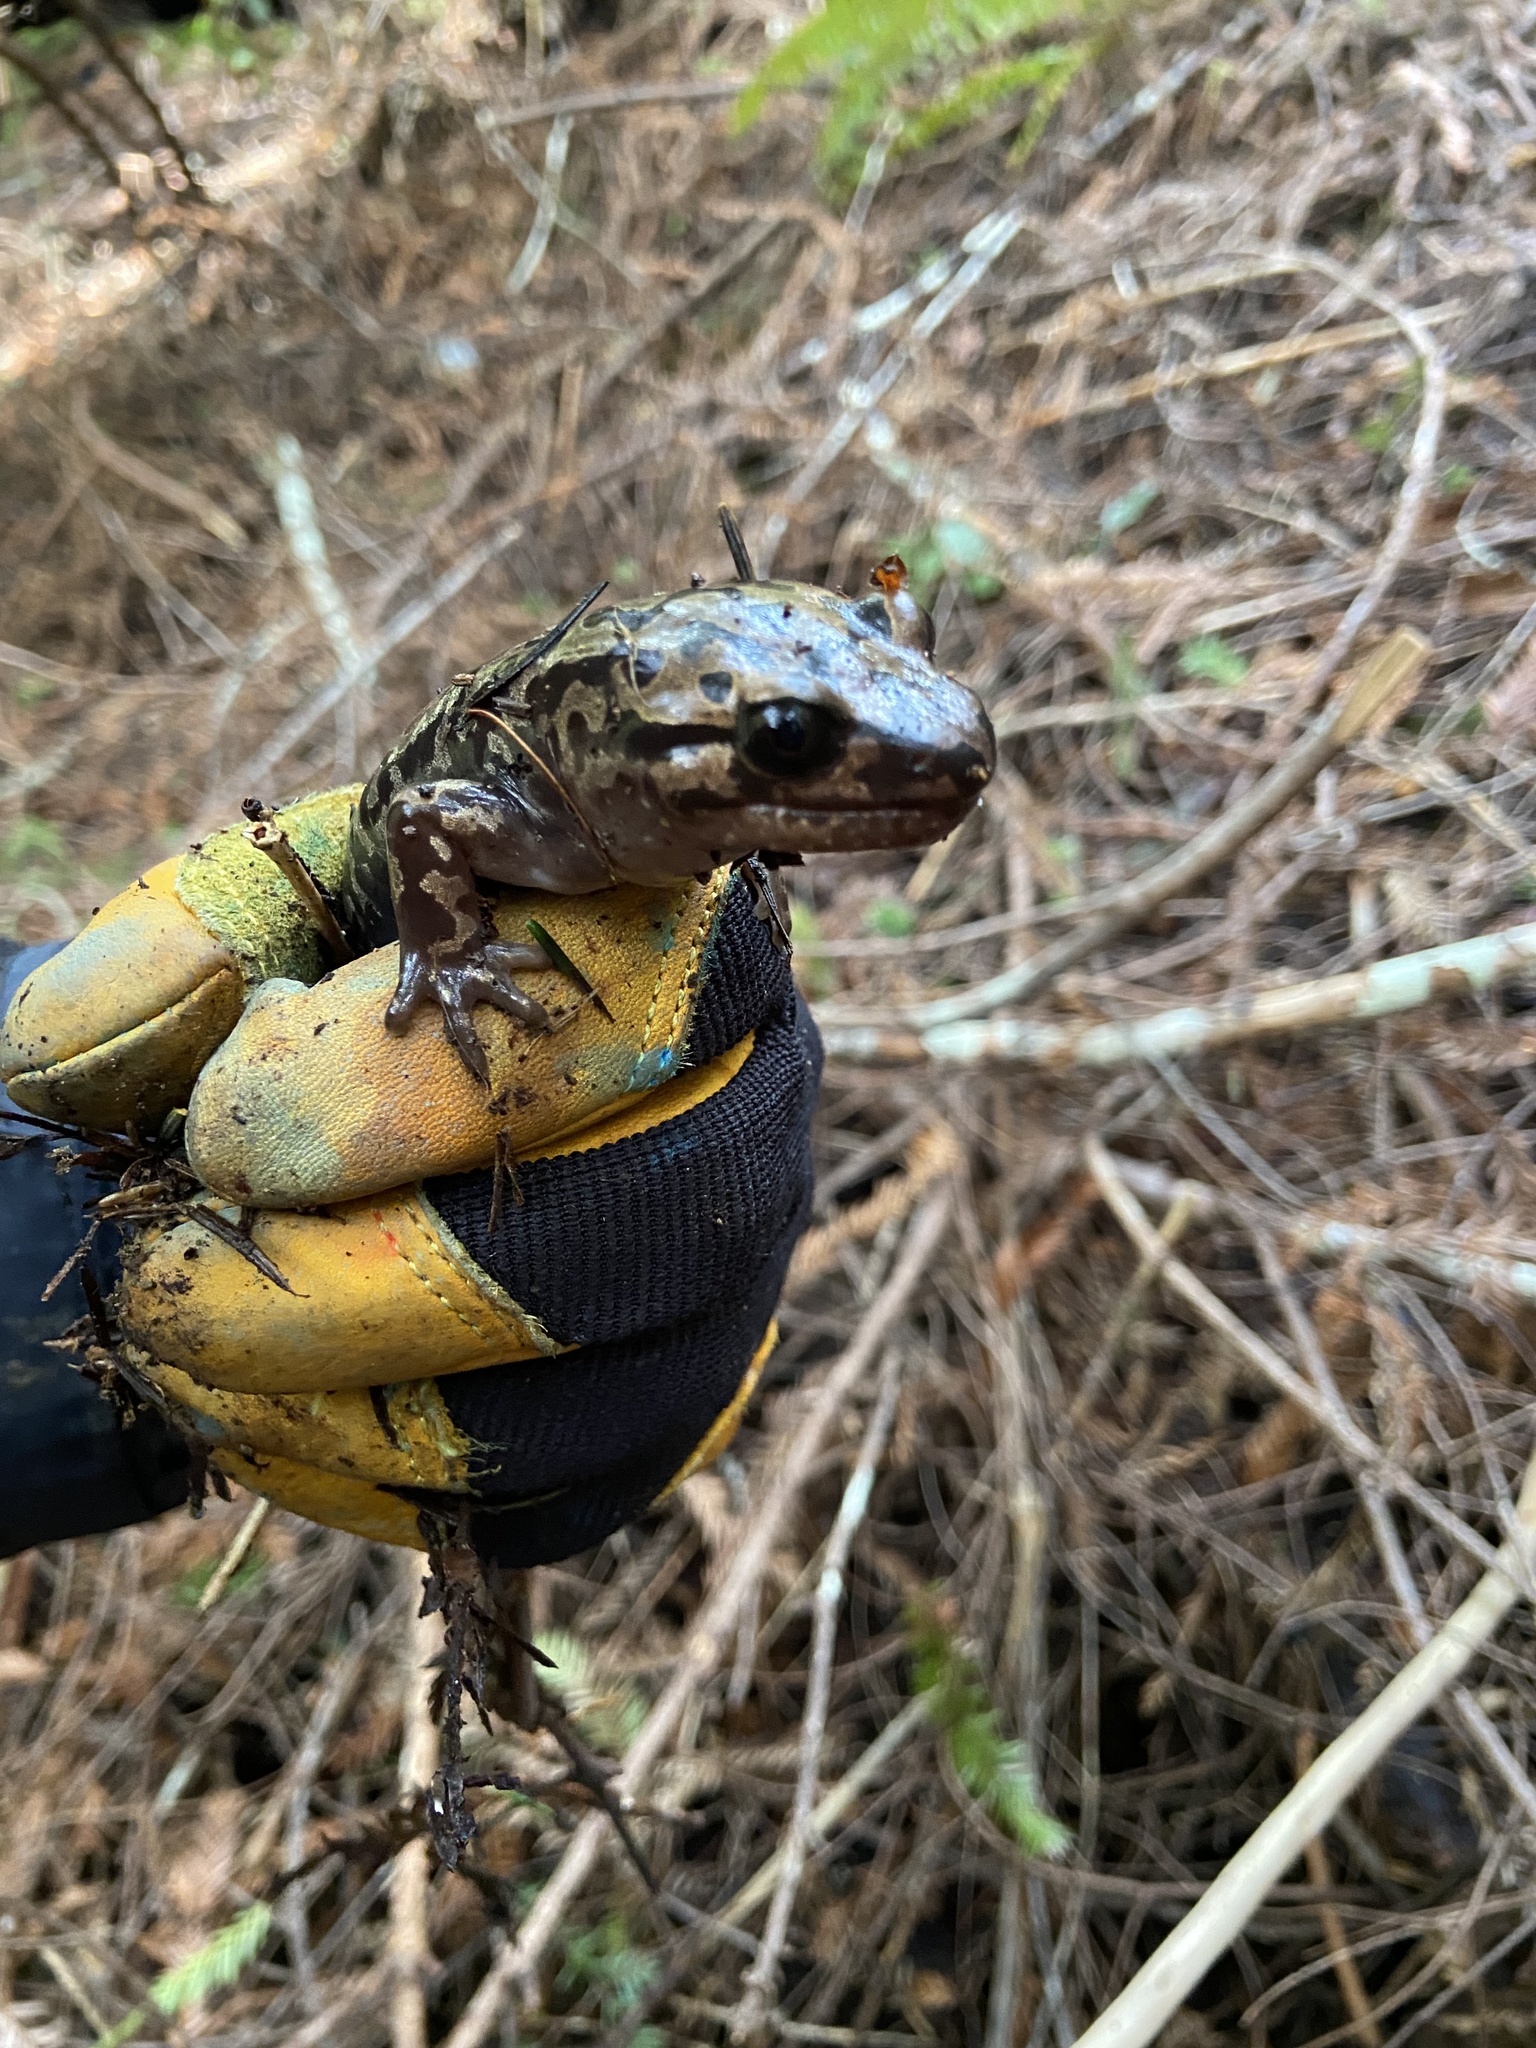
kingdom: Animalia
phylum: Chordata
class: Amphibia
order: Caudata
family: Ambystomatidae
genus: Dicamptodon
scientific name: Dicamptodon tenebrosus
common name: Coastal giant salamander
